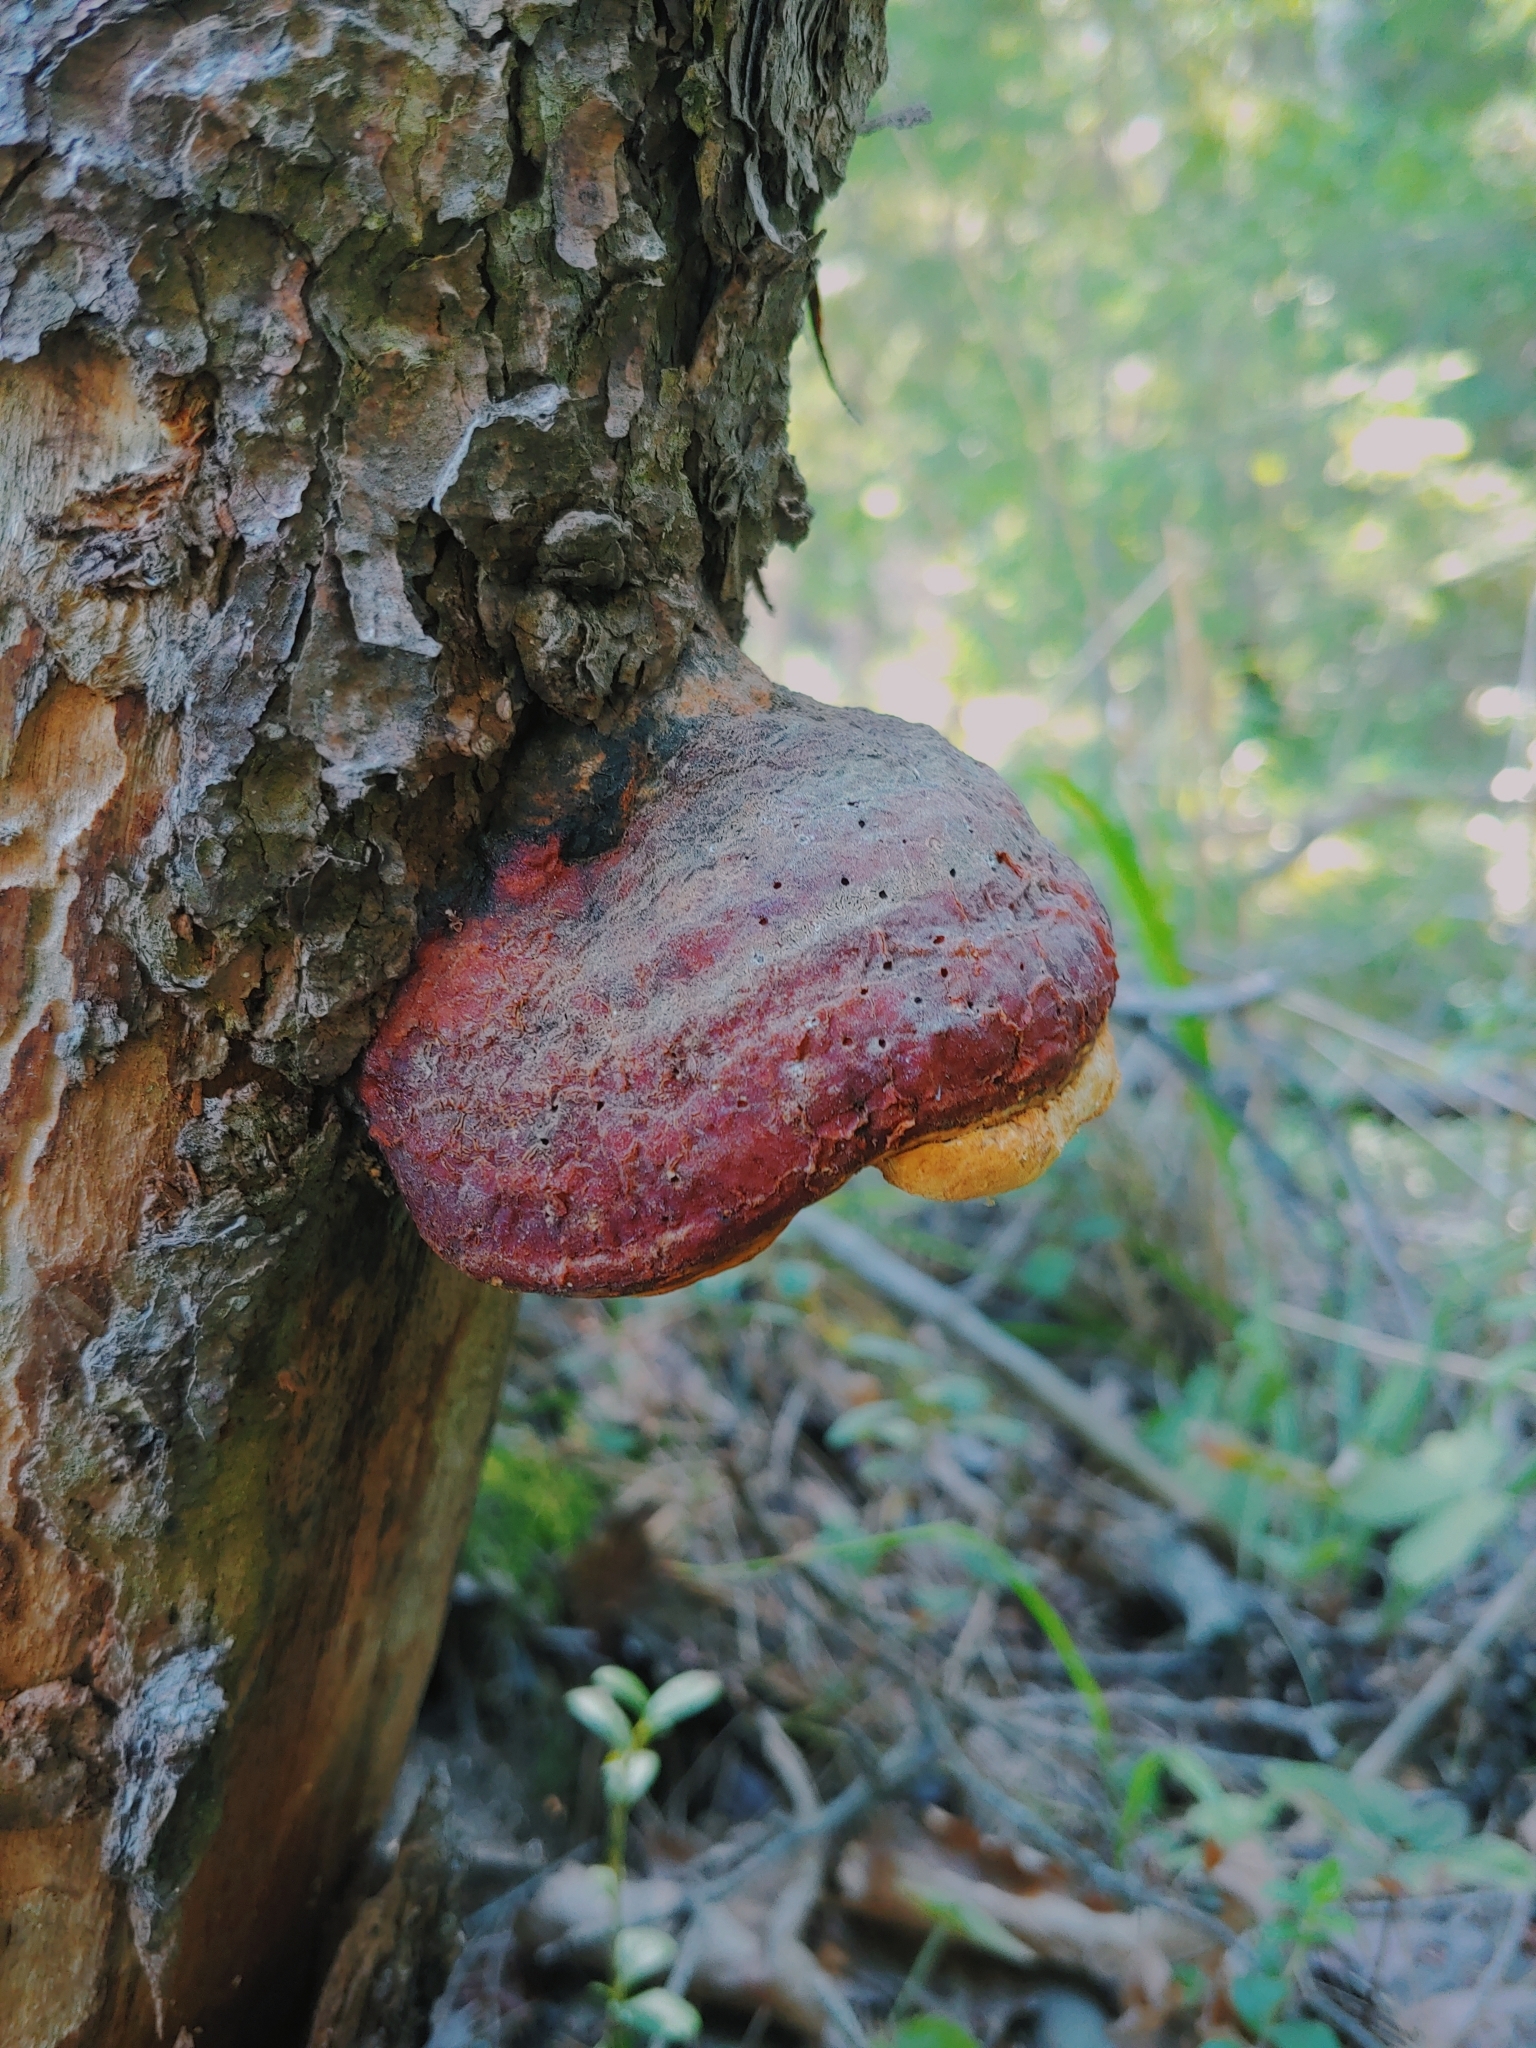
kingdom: Fungi
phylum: Basidiomycota
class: Agaricomycetes
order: Polyporales
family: Fomitopsidaceae
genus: Fomitopsis
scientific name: Fomitopsis pinicola
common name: Red-belted bracket
